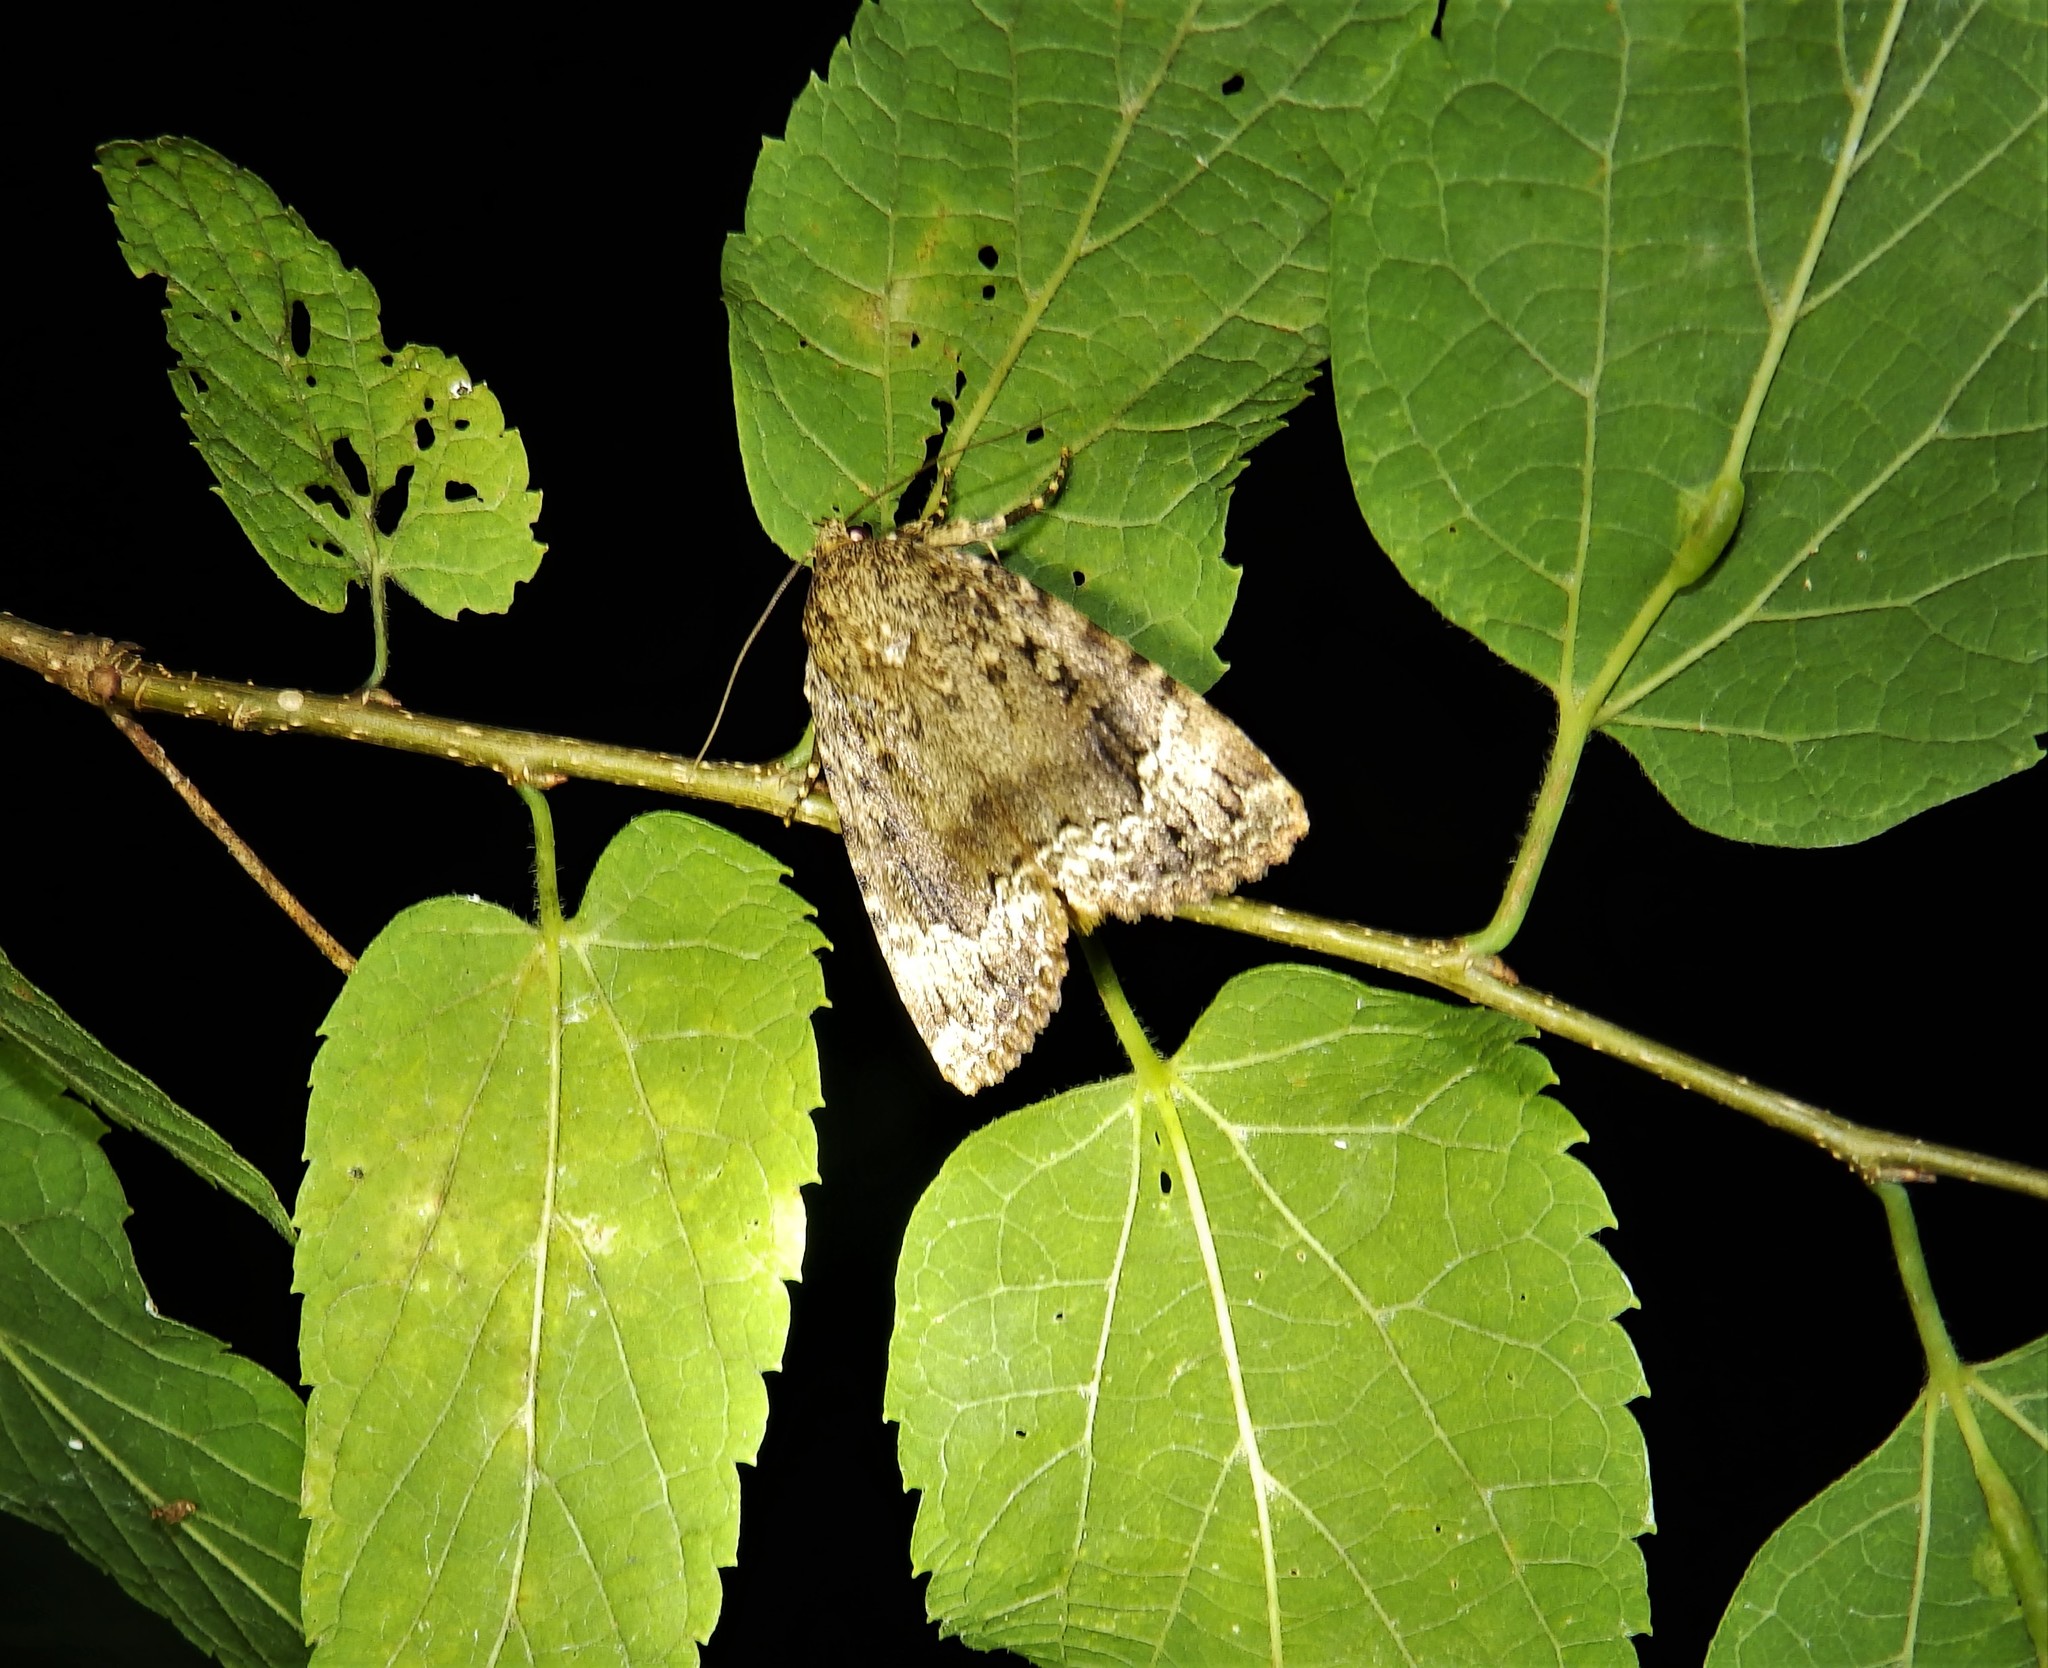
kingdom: Animalia
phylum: Arthropoda
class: Insecta
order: Lepidoptera
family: Noctuidae
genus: Amphipyra
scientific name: Amphipyra pyramidoides
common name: American copper underwing
